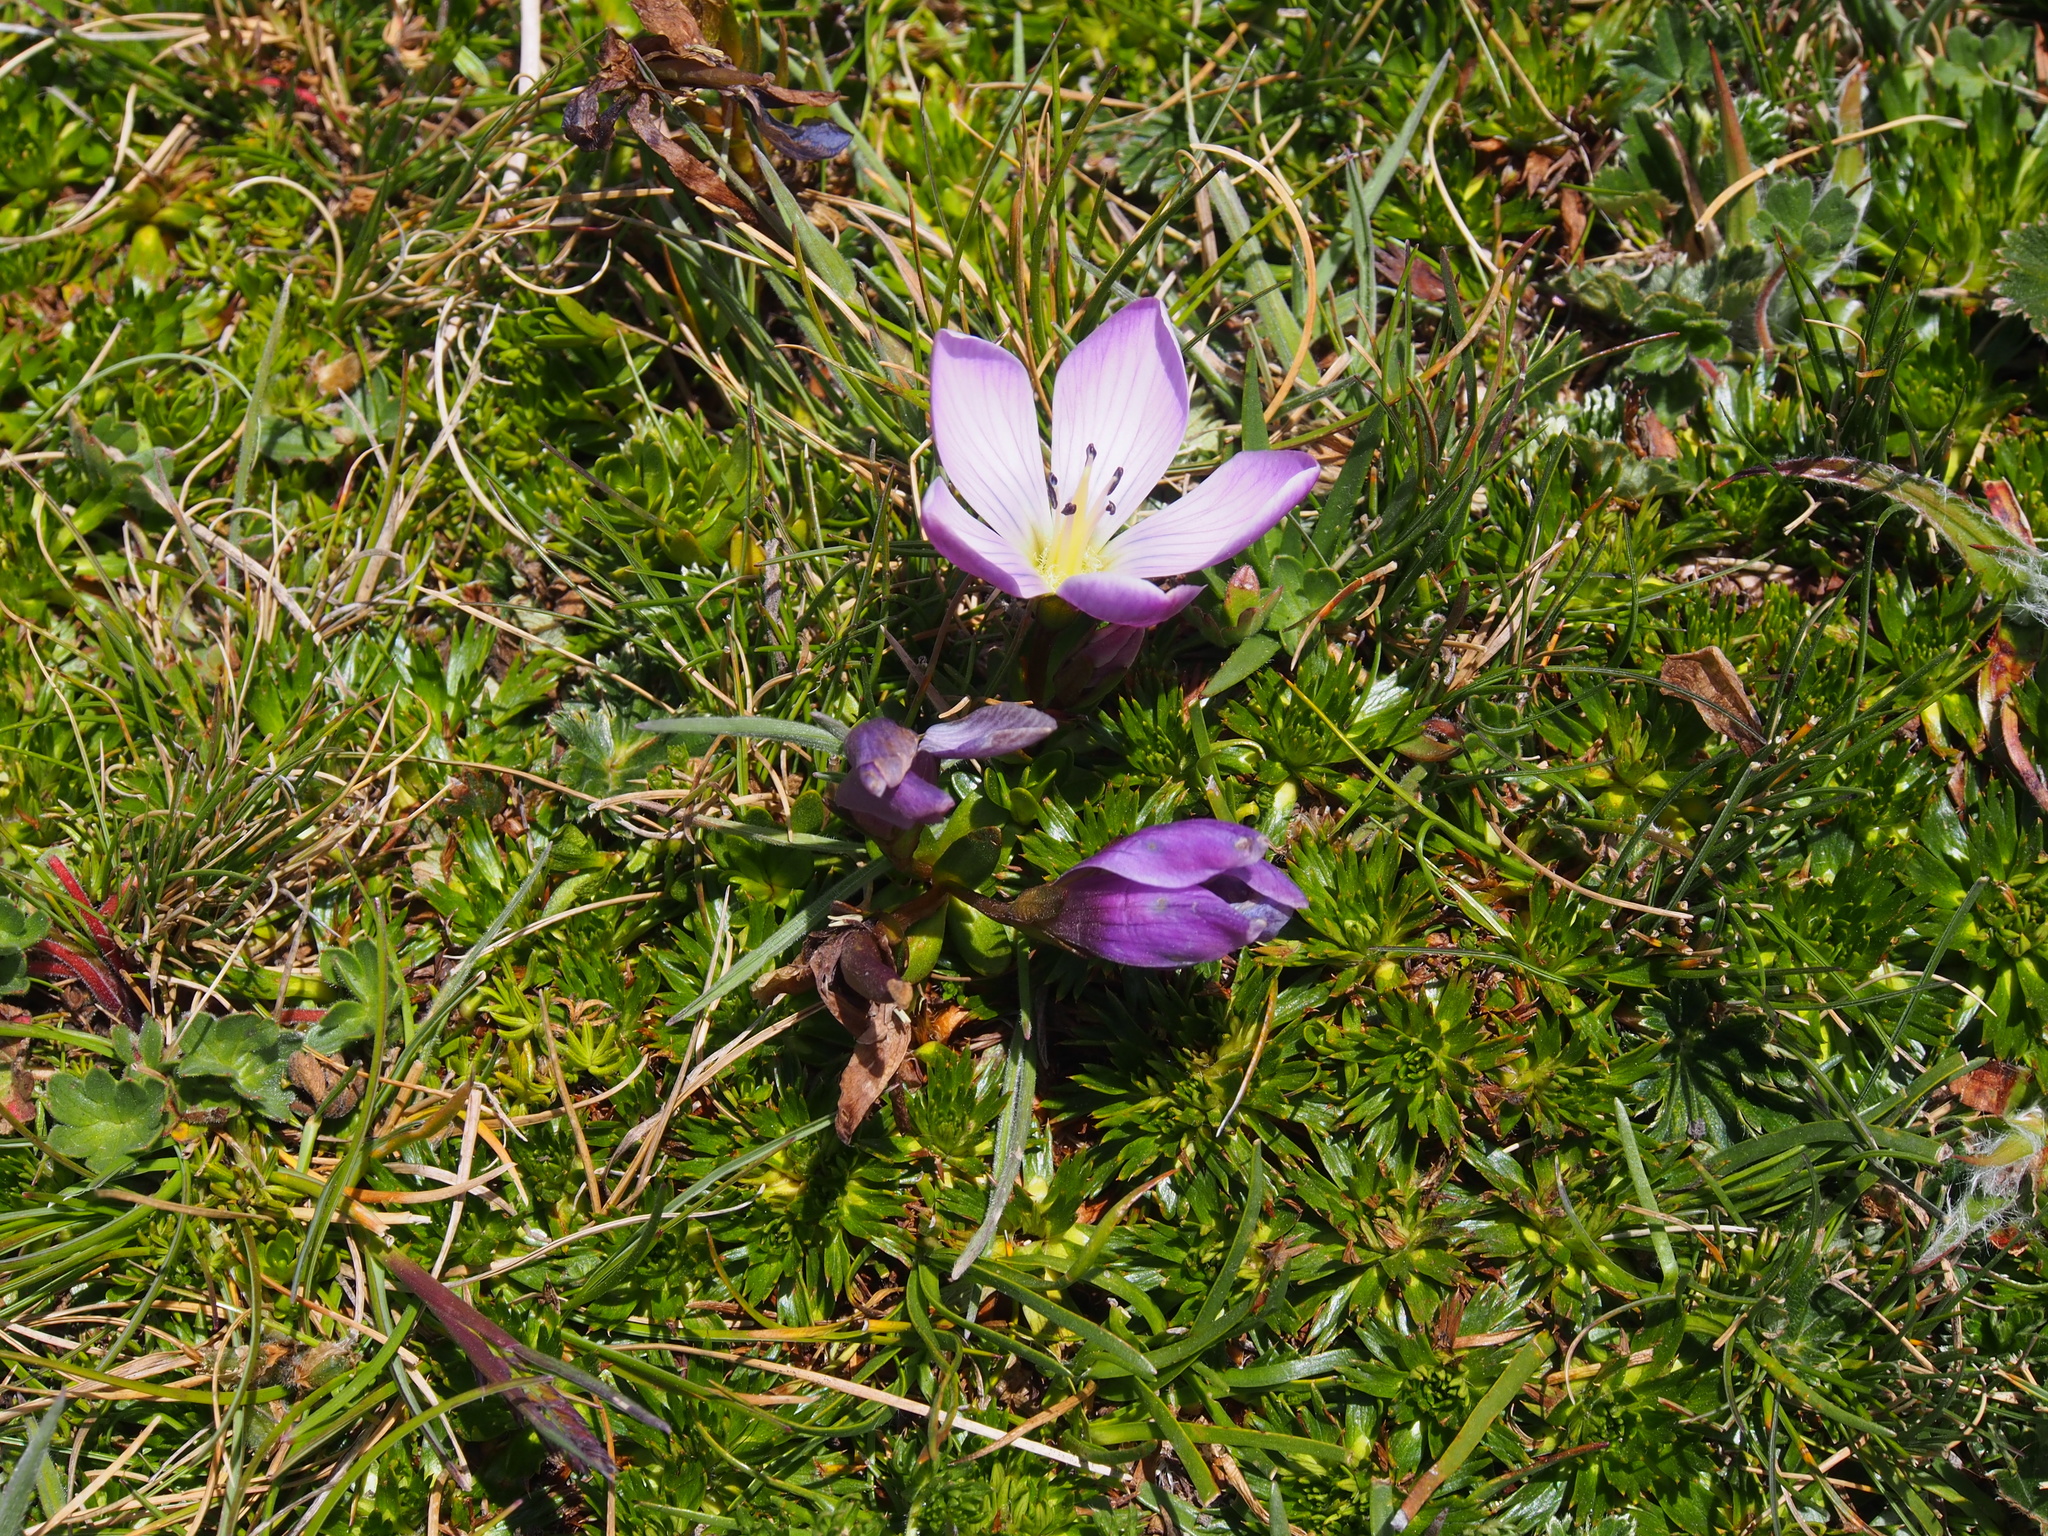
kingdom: Plantae
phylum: Tracheophyta
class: Magnoliopsida
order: Gentianales
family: Gentianaceae
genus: Gentianella
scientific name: Gentianella cerastioides
